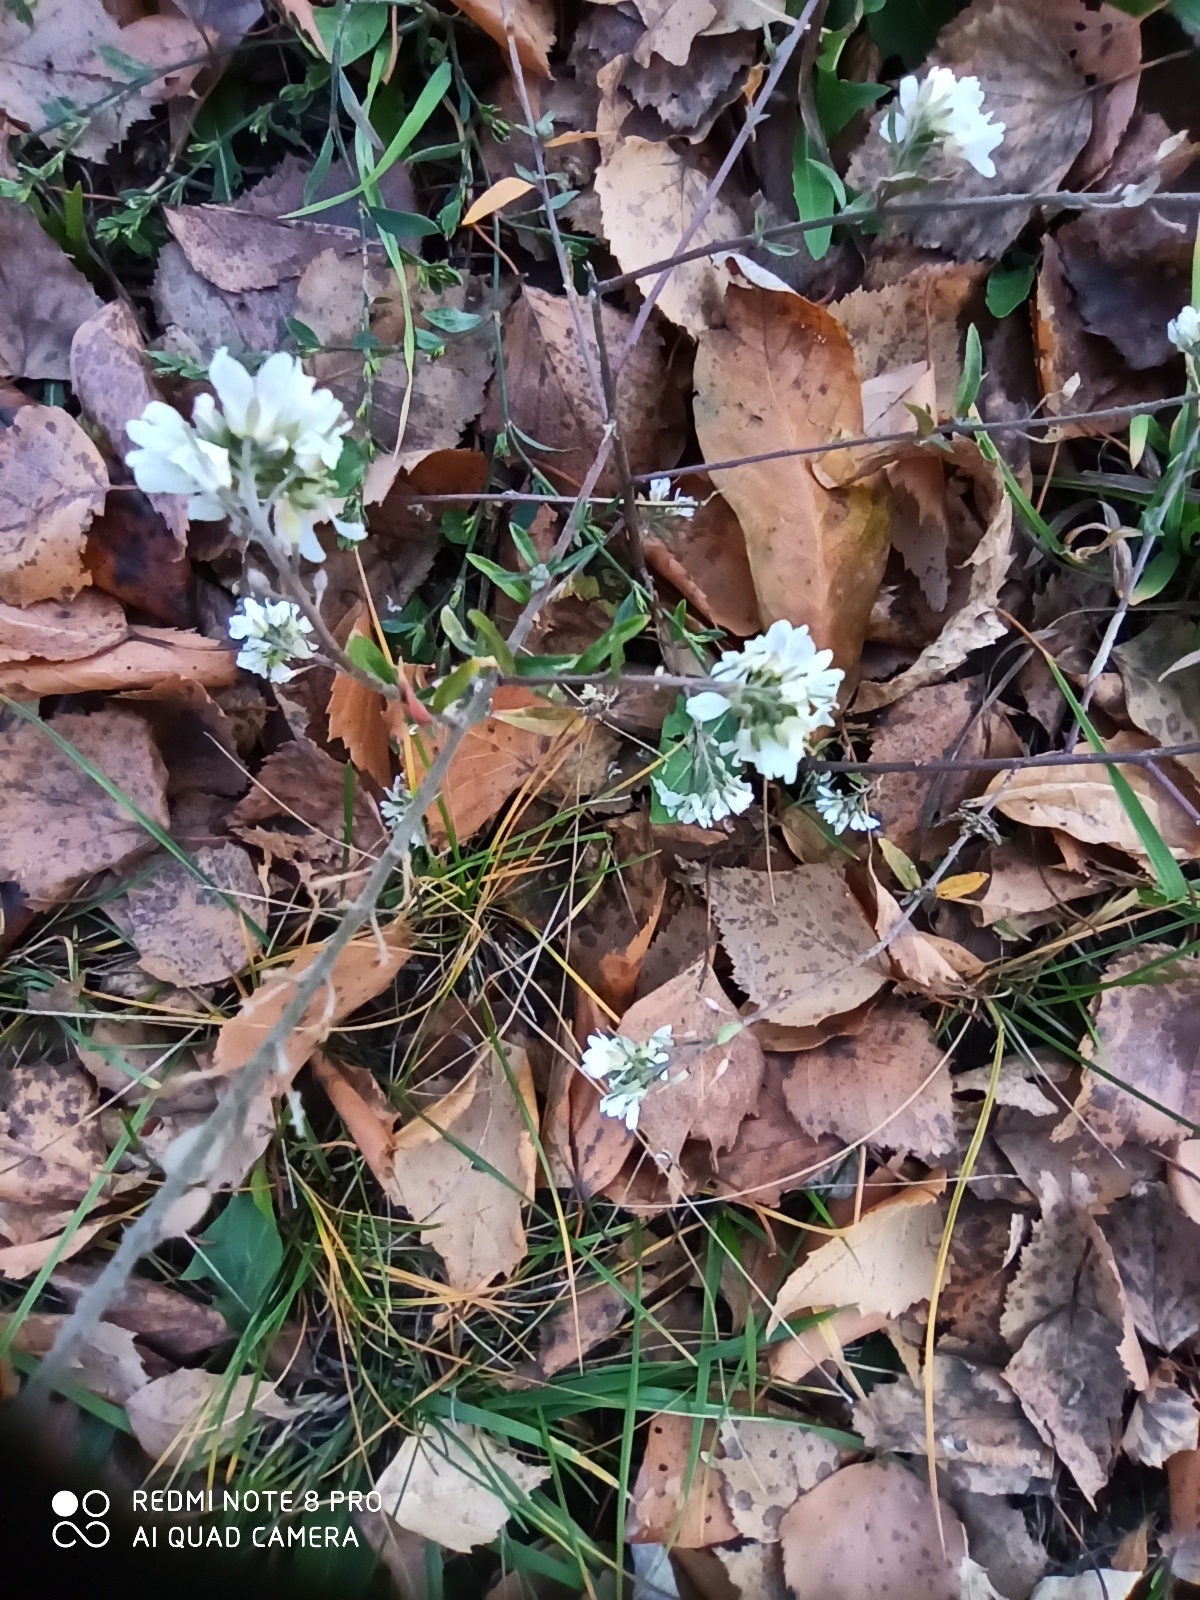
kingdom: Plantae
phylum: Tracheophyta
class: Magnoliopsida
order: Brassicales
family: Brassicaceae
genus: Berteroa
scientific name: Berteroa incana
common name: Hoary alison
